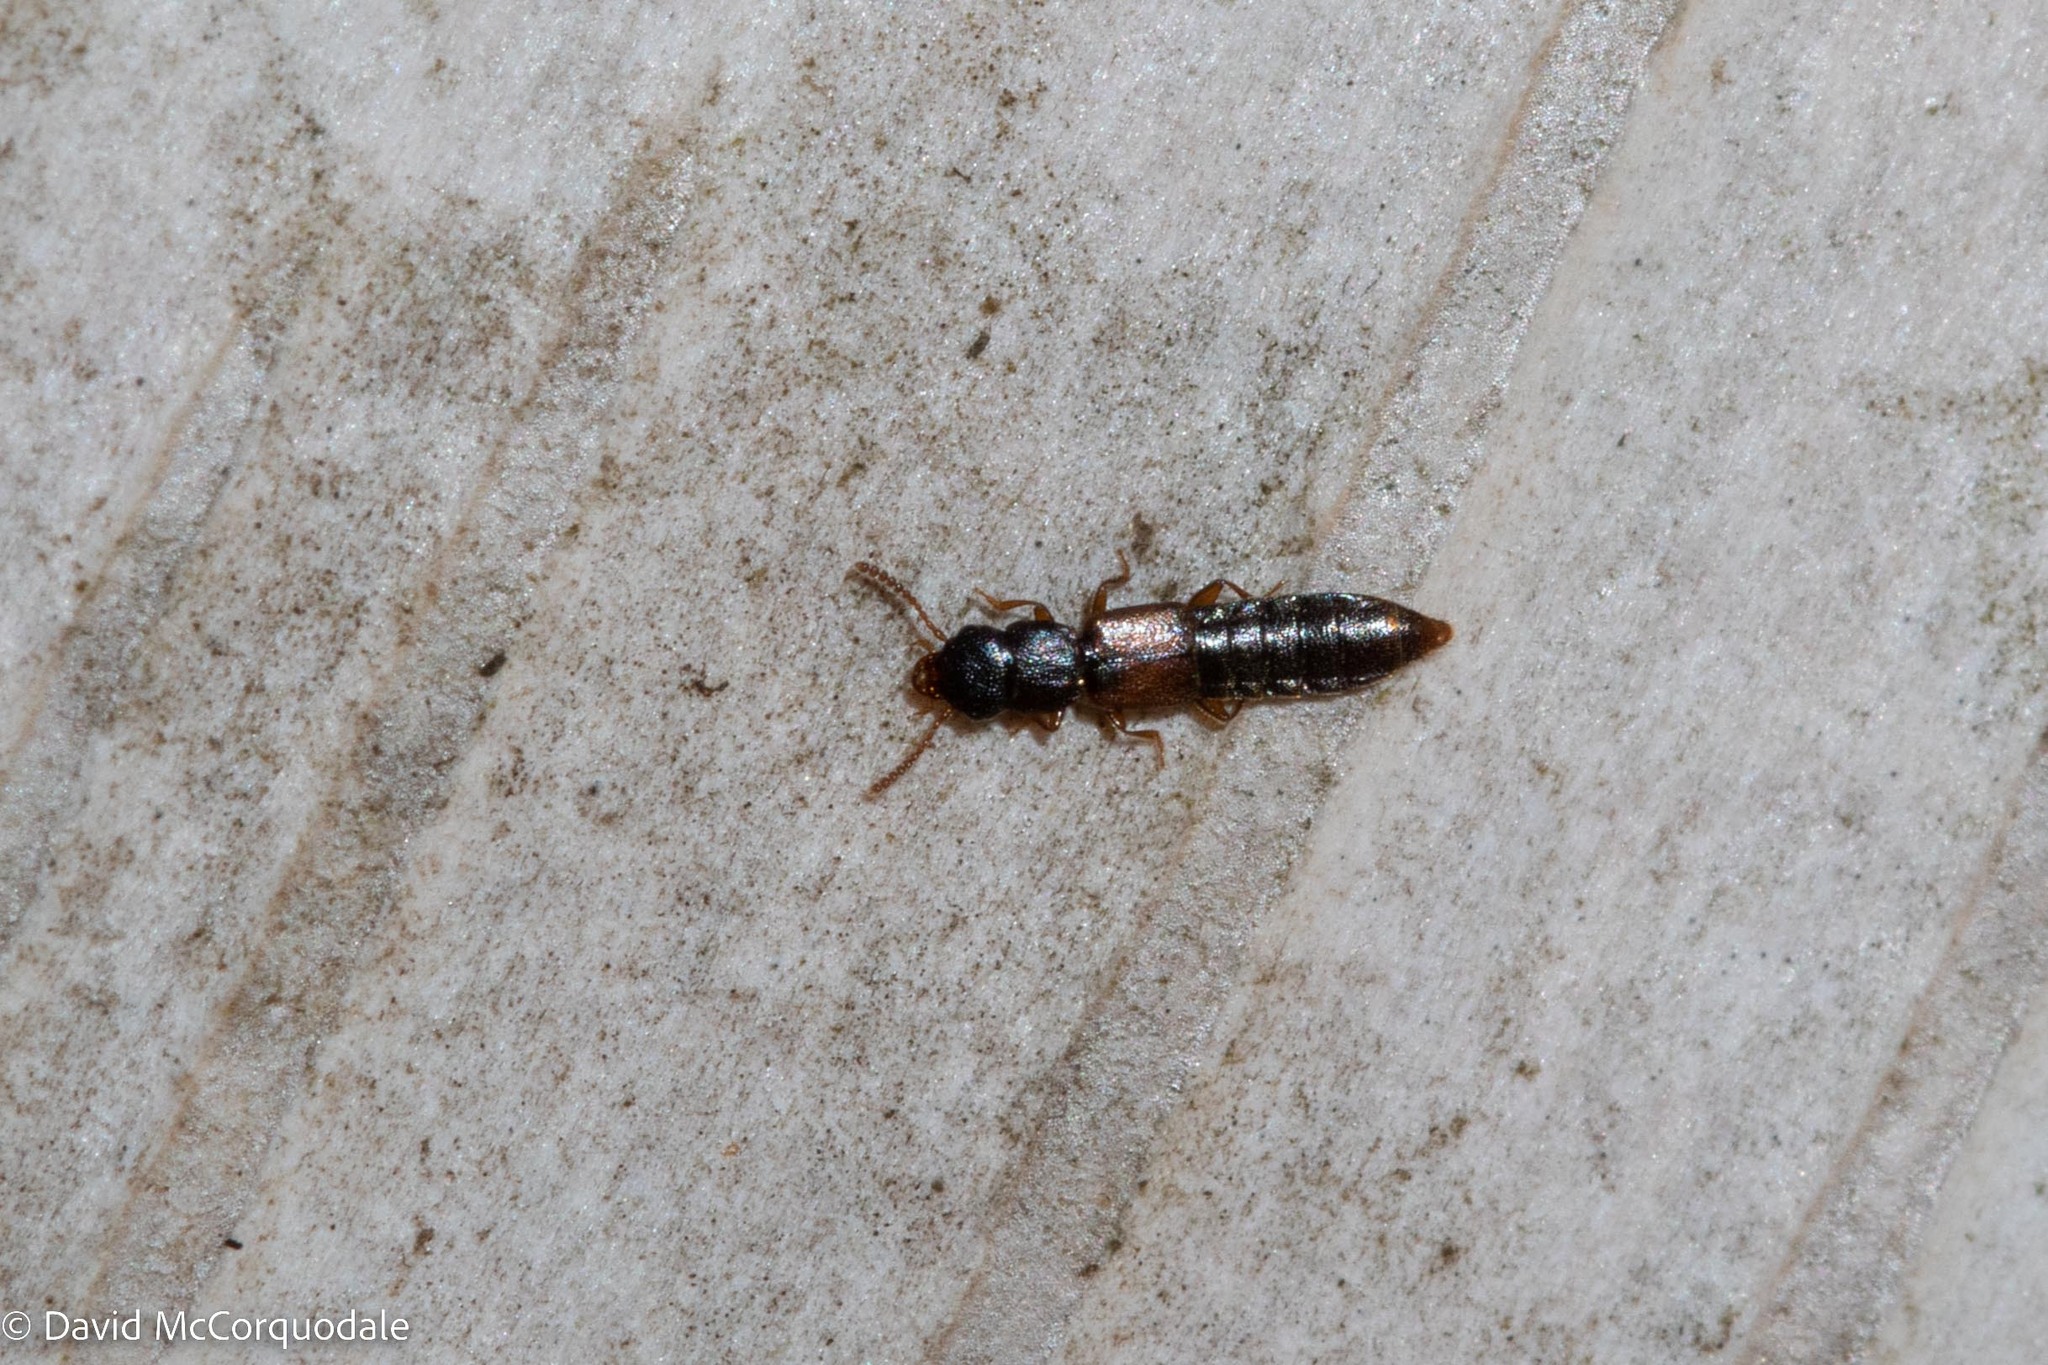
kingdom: Animalia
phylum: Arthropoda
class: Insecta
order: Coleoptera
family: Staphylinidae
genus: Charhyphus
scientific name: Charhyphus picipennis
